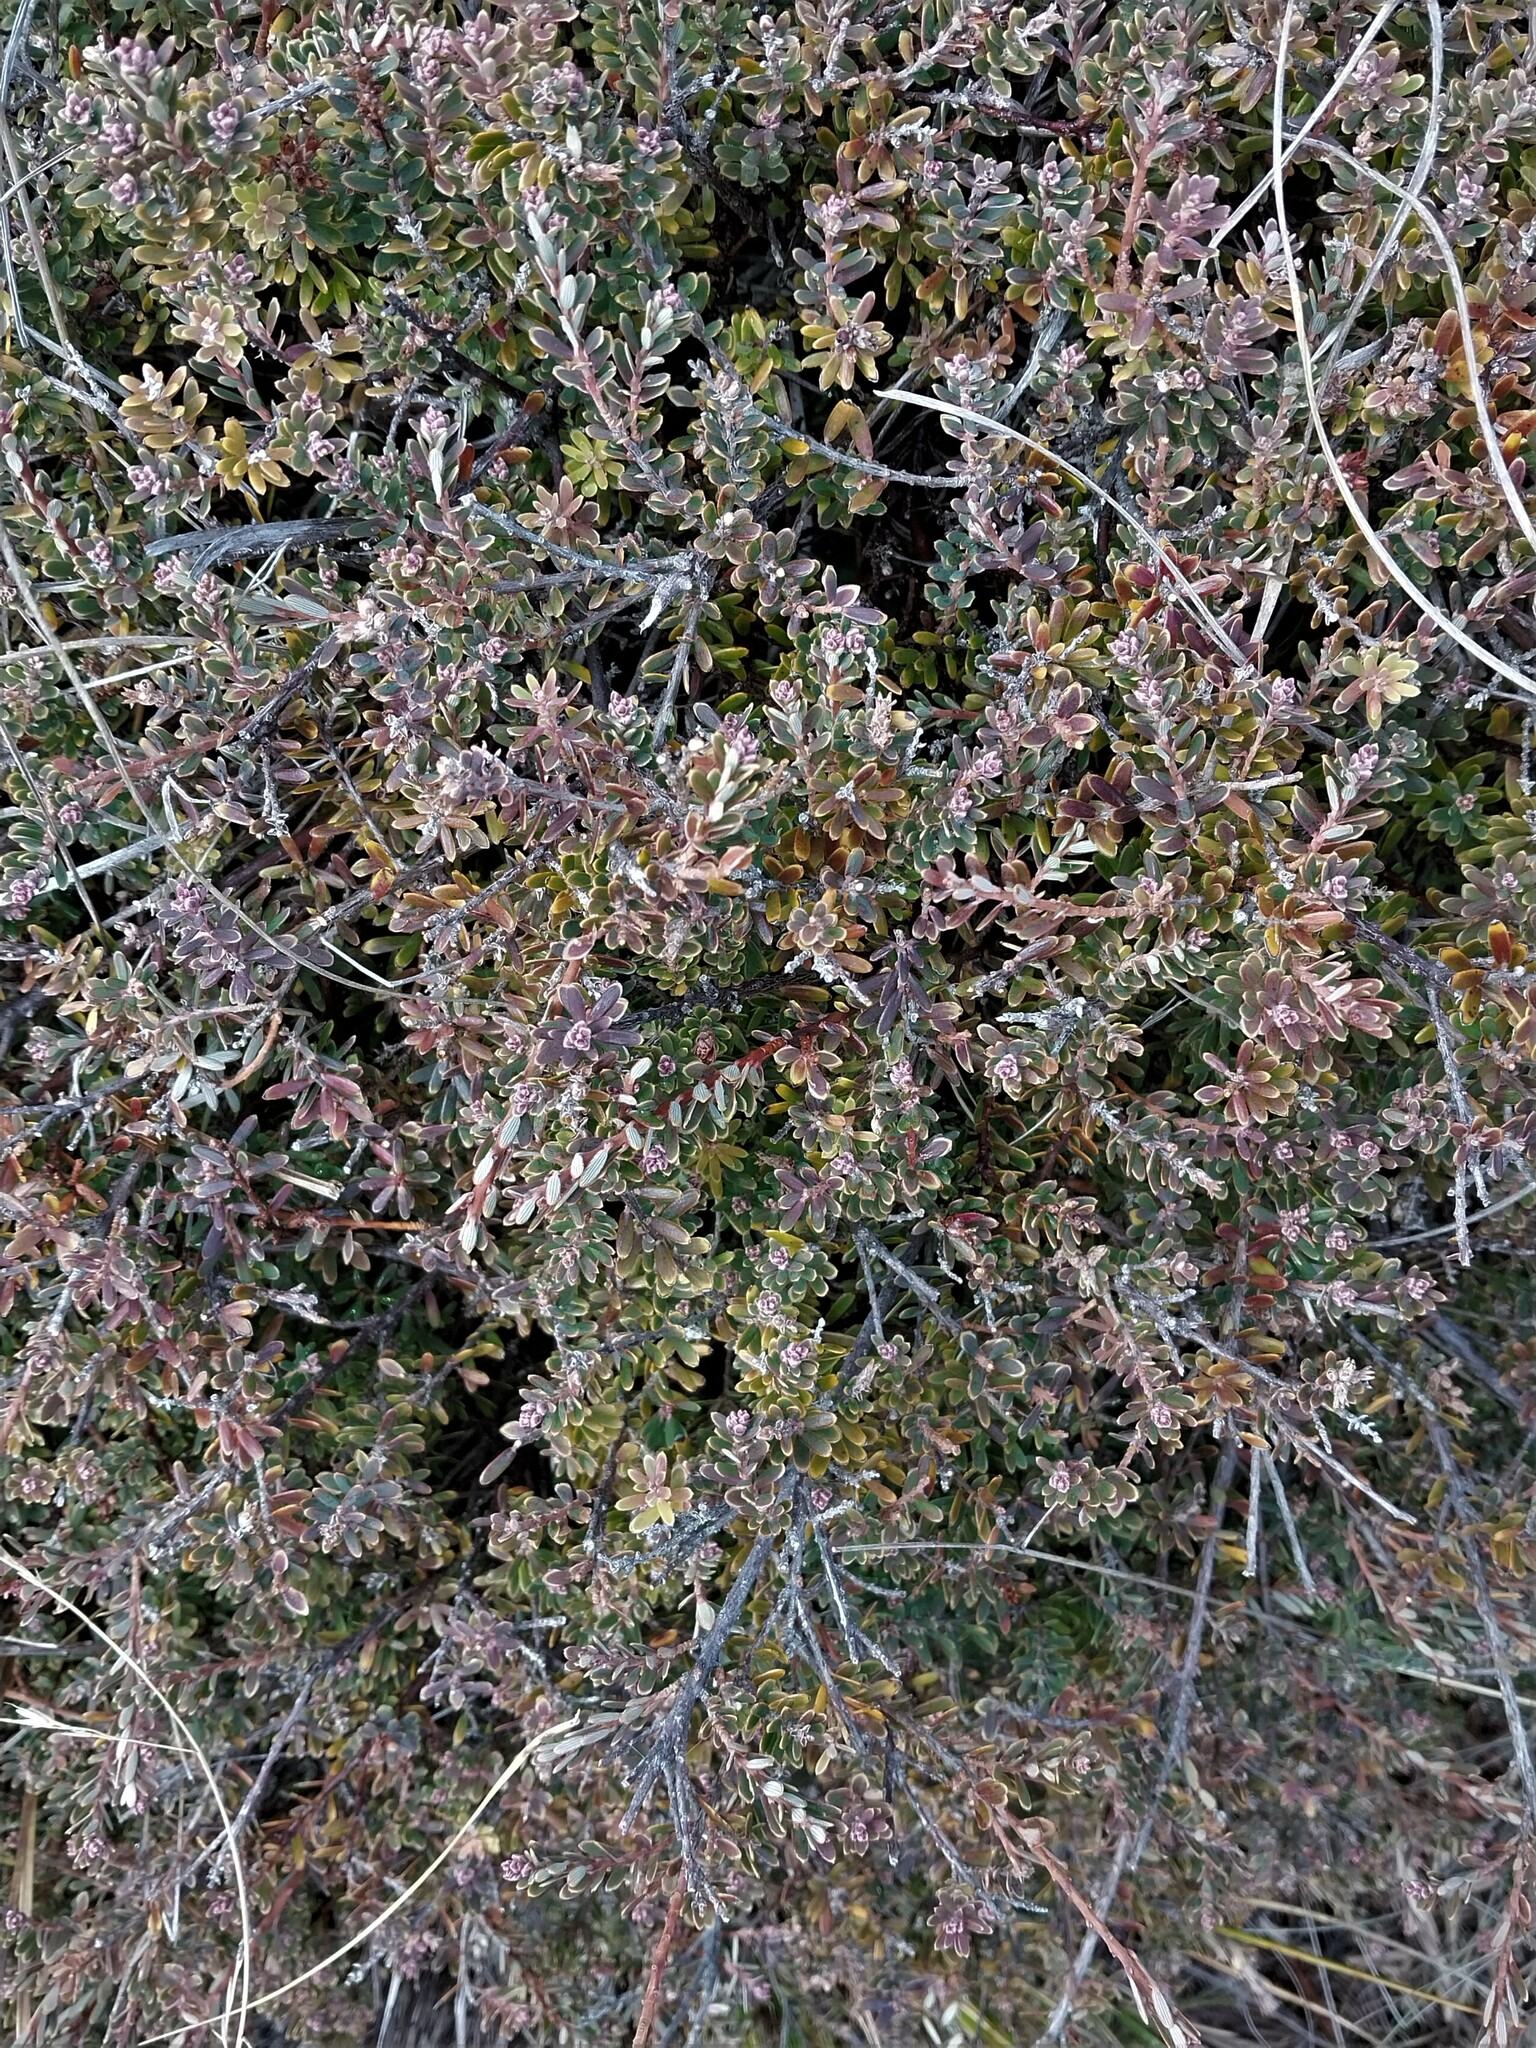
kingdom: Plantae
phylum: Tracheophyta
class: Magnoliopsida
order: Ericales
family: Ericaceae
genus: Acrothamnus
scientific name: Acrothamnus colensoi
